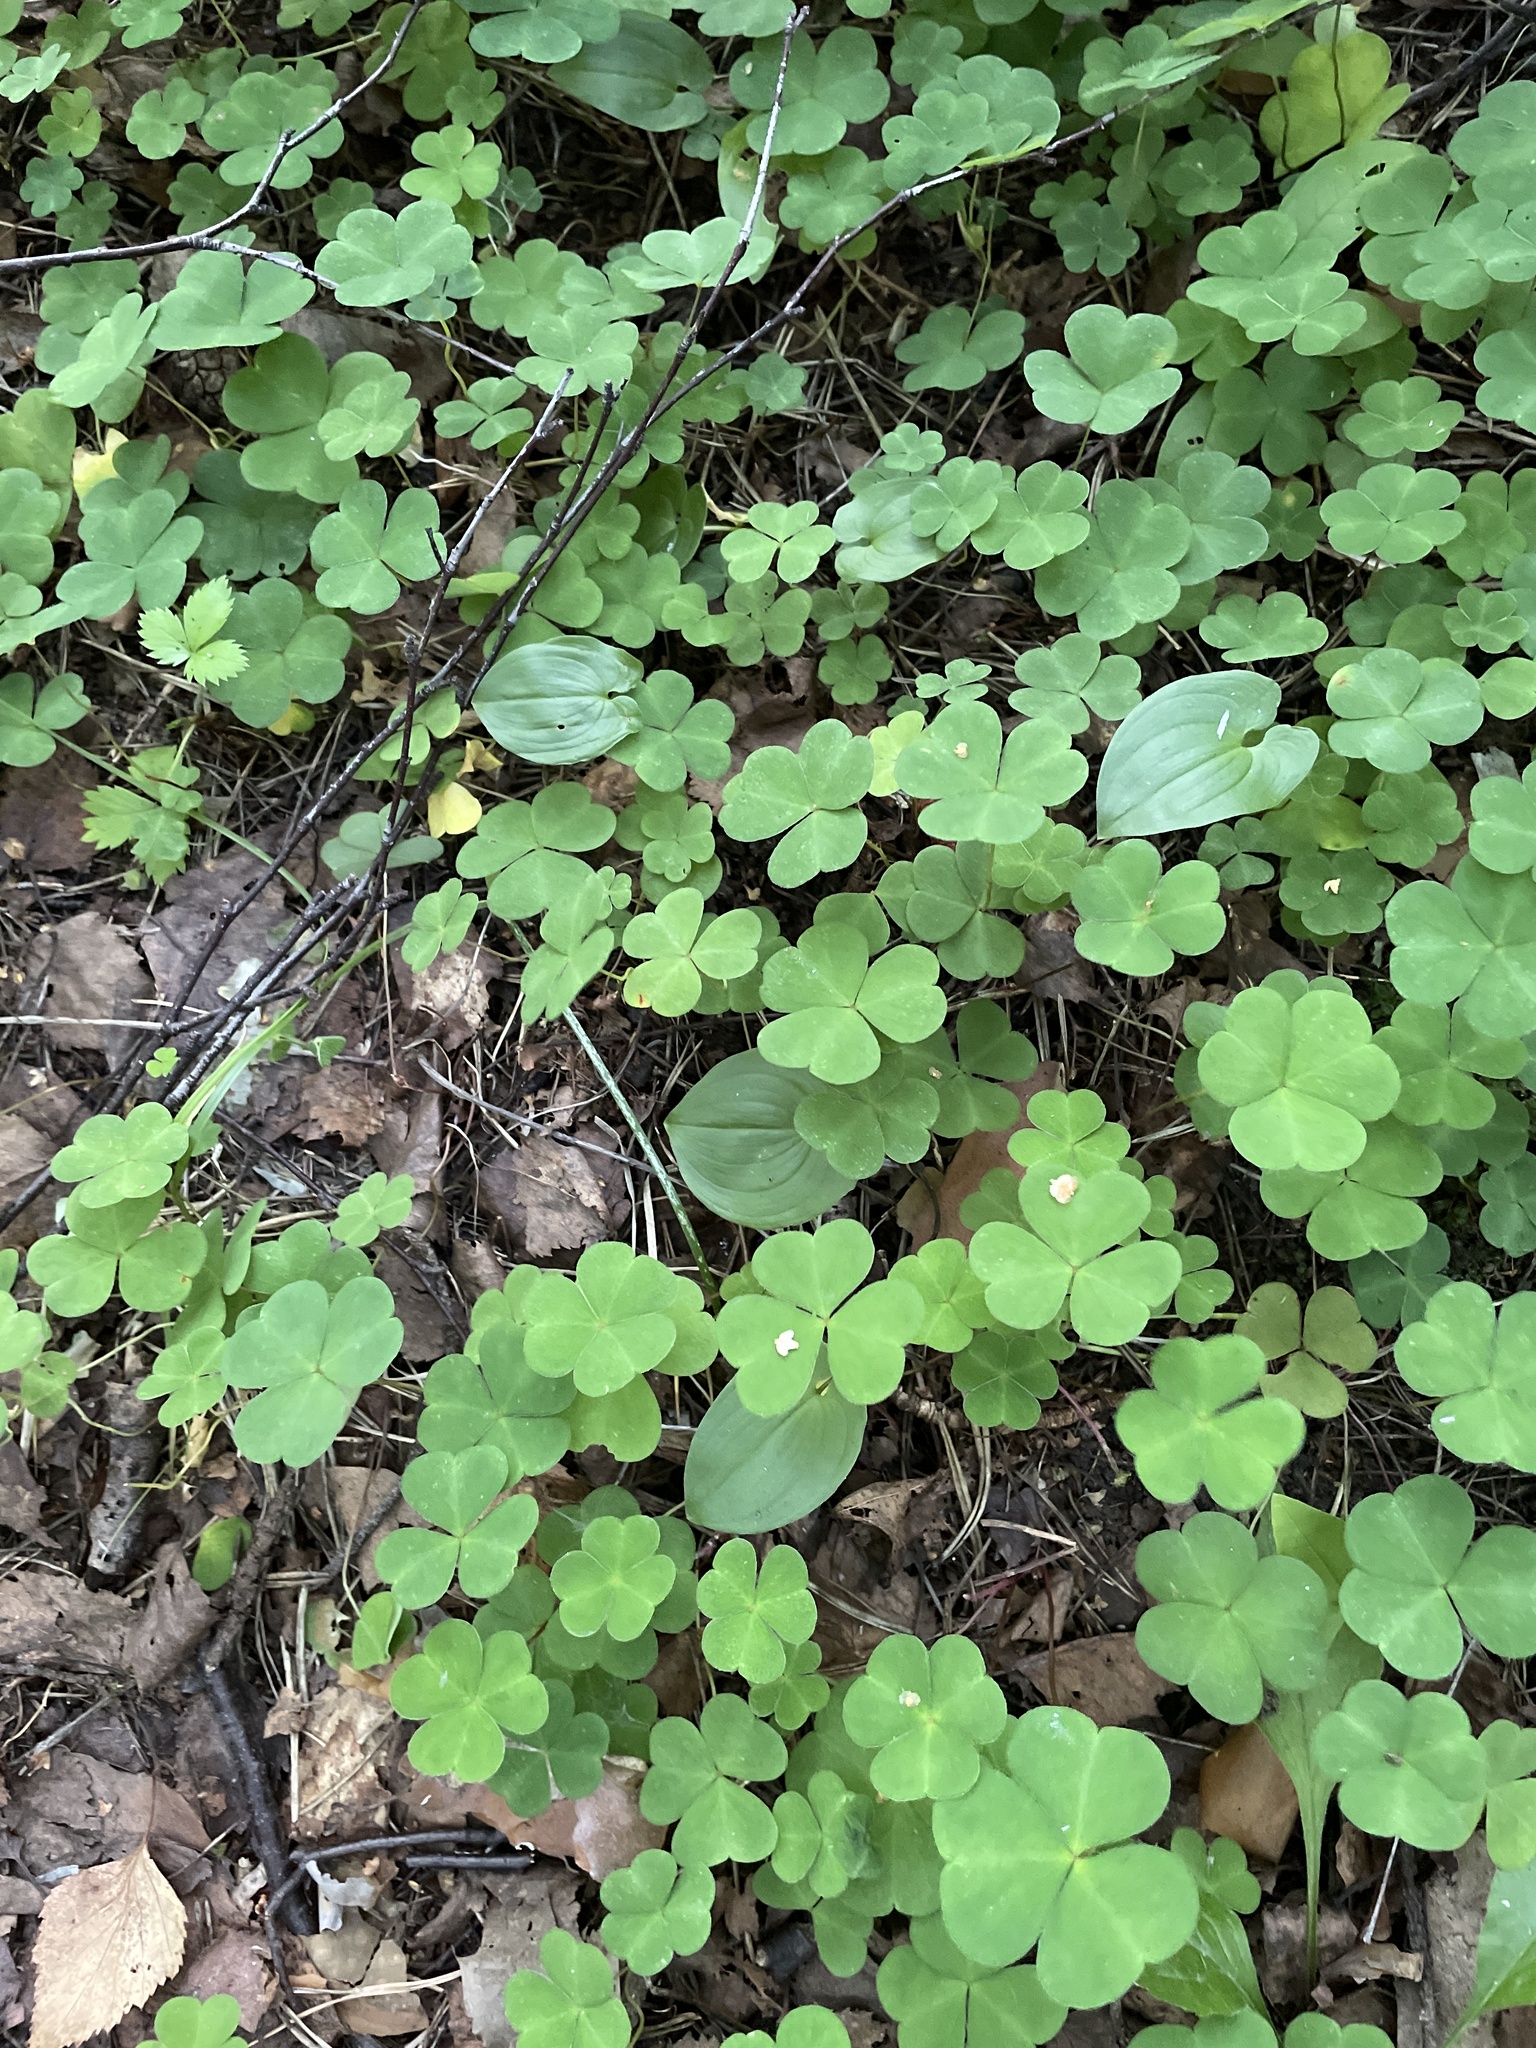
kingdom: Plantae
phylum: Tracheophyta
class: Magnoliopsida
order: Oxalidales
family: Oxalidaceae
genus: Oxalis
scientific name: Oxalis acetosella
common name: Wood-sorrel
